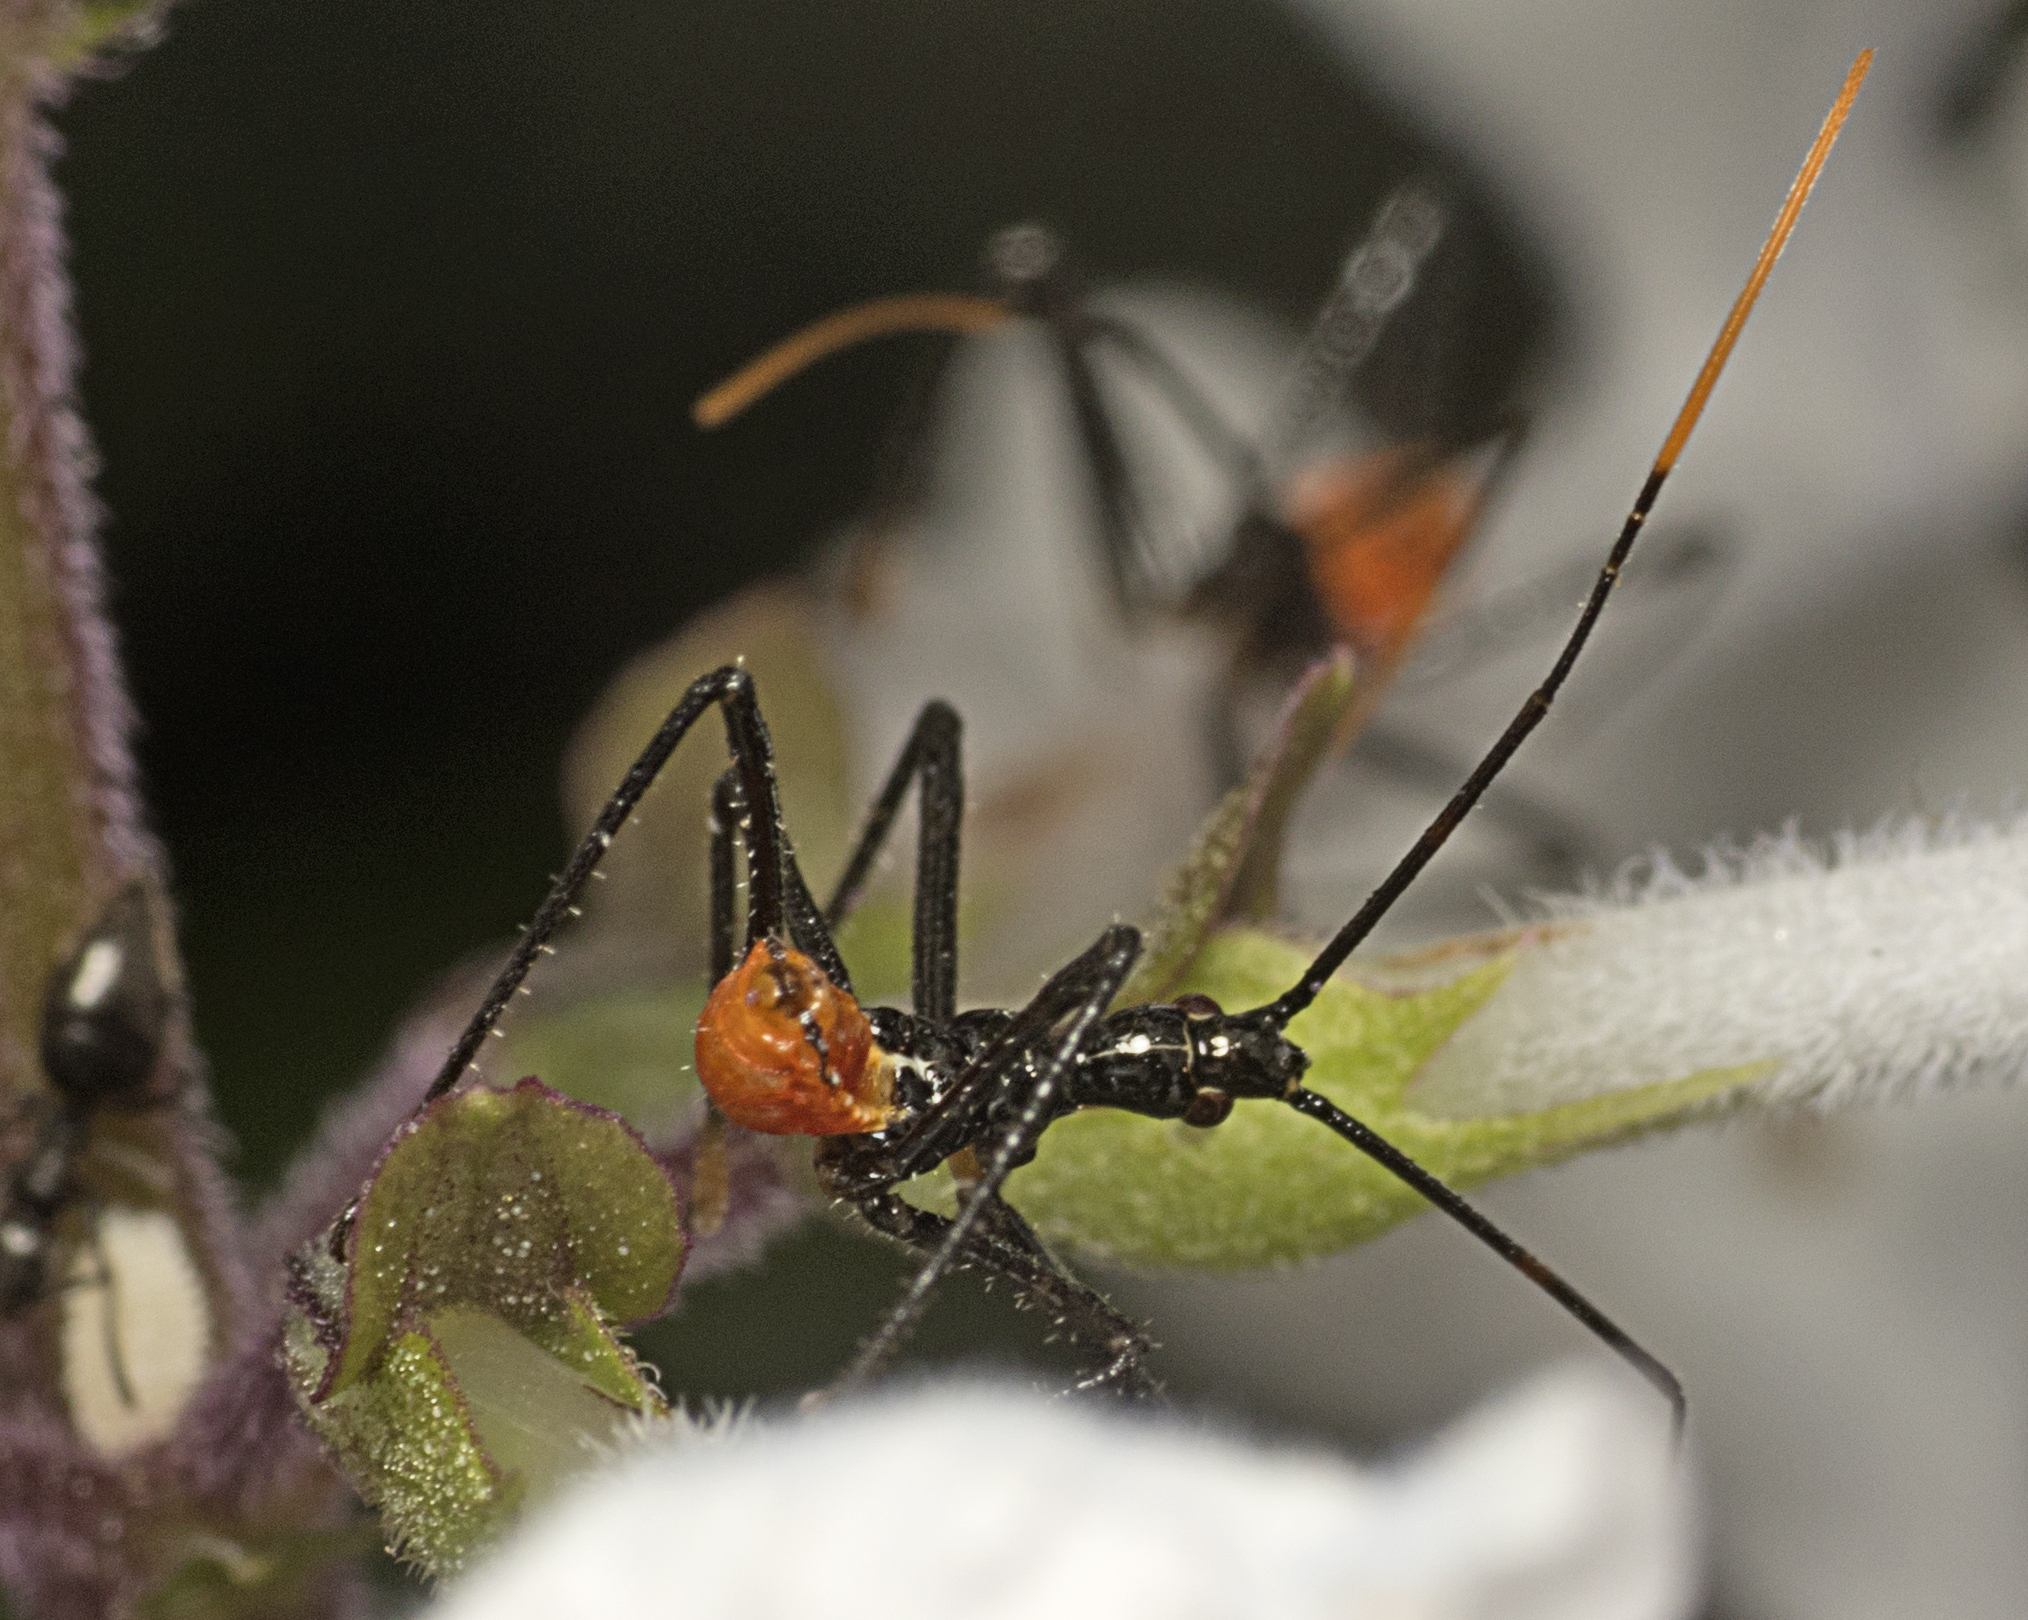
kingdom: Animalia
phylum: Arthropoda
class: Insecta
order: Hemiptera
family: Reduviidae
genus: Pristhesancus
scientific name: Pristhesancus plagipennis
